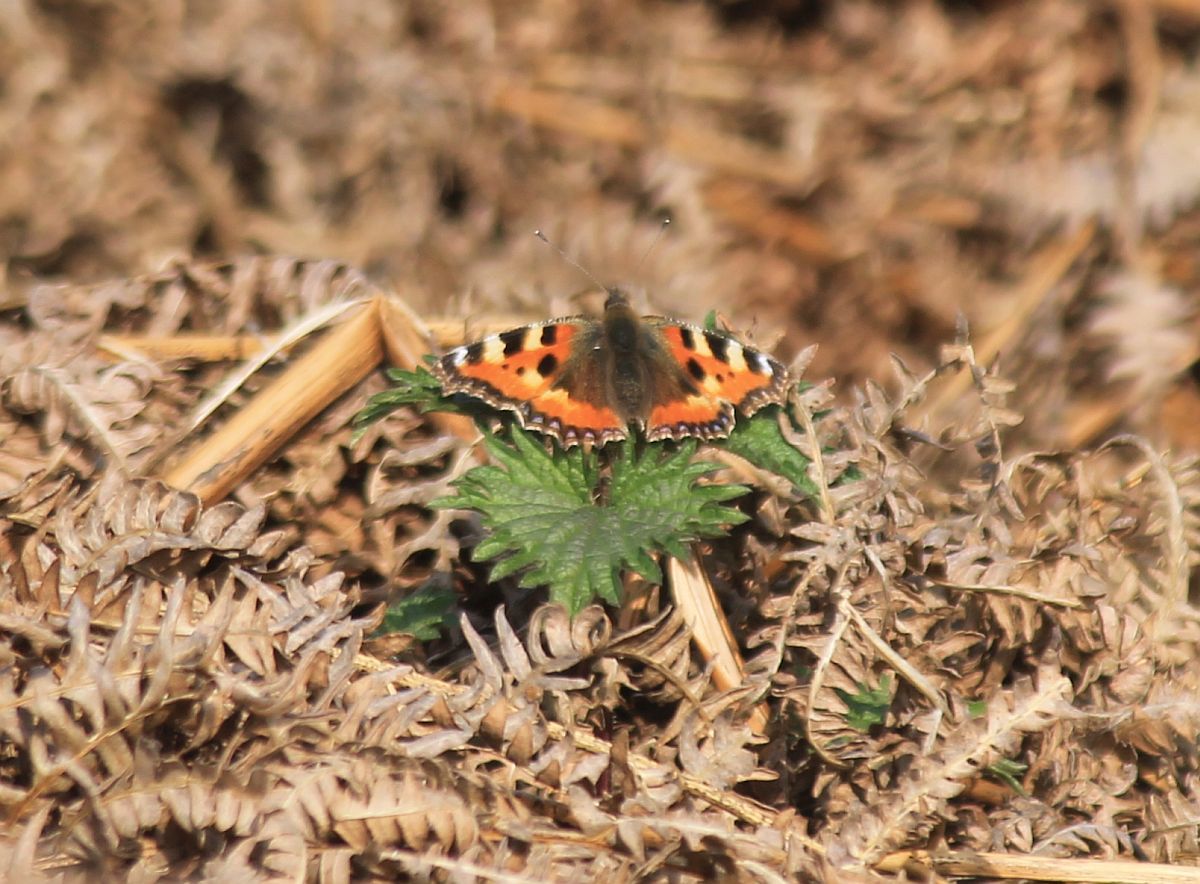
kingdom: Animalia
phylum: Arthropoda
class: Insecta
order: Lepidoptera
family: Nymphalidae
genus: Aglais
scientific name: Aglais urticae
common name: Small tortoiseshell
